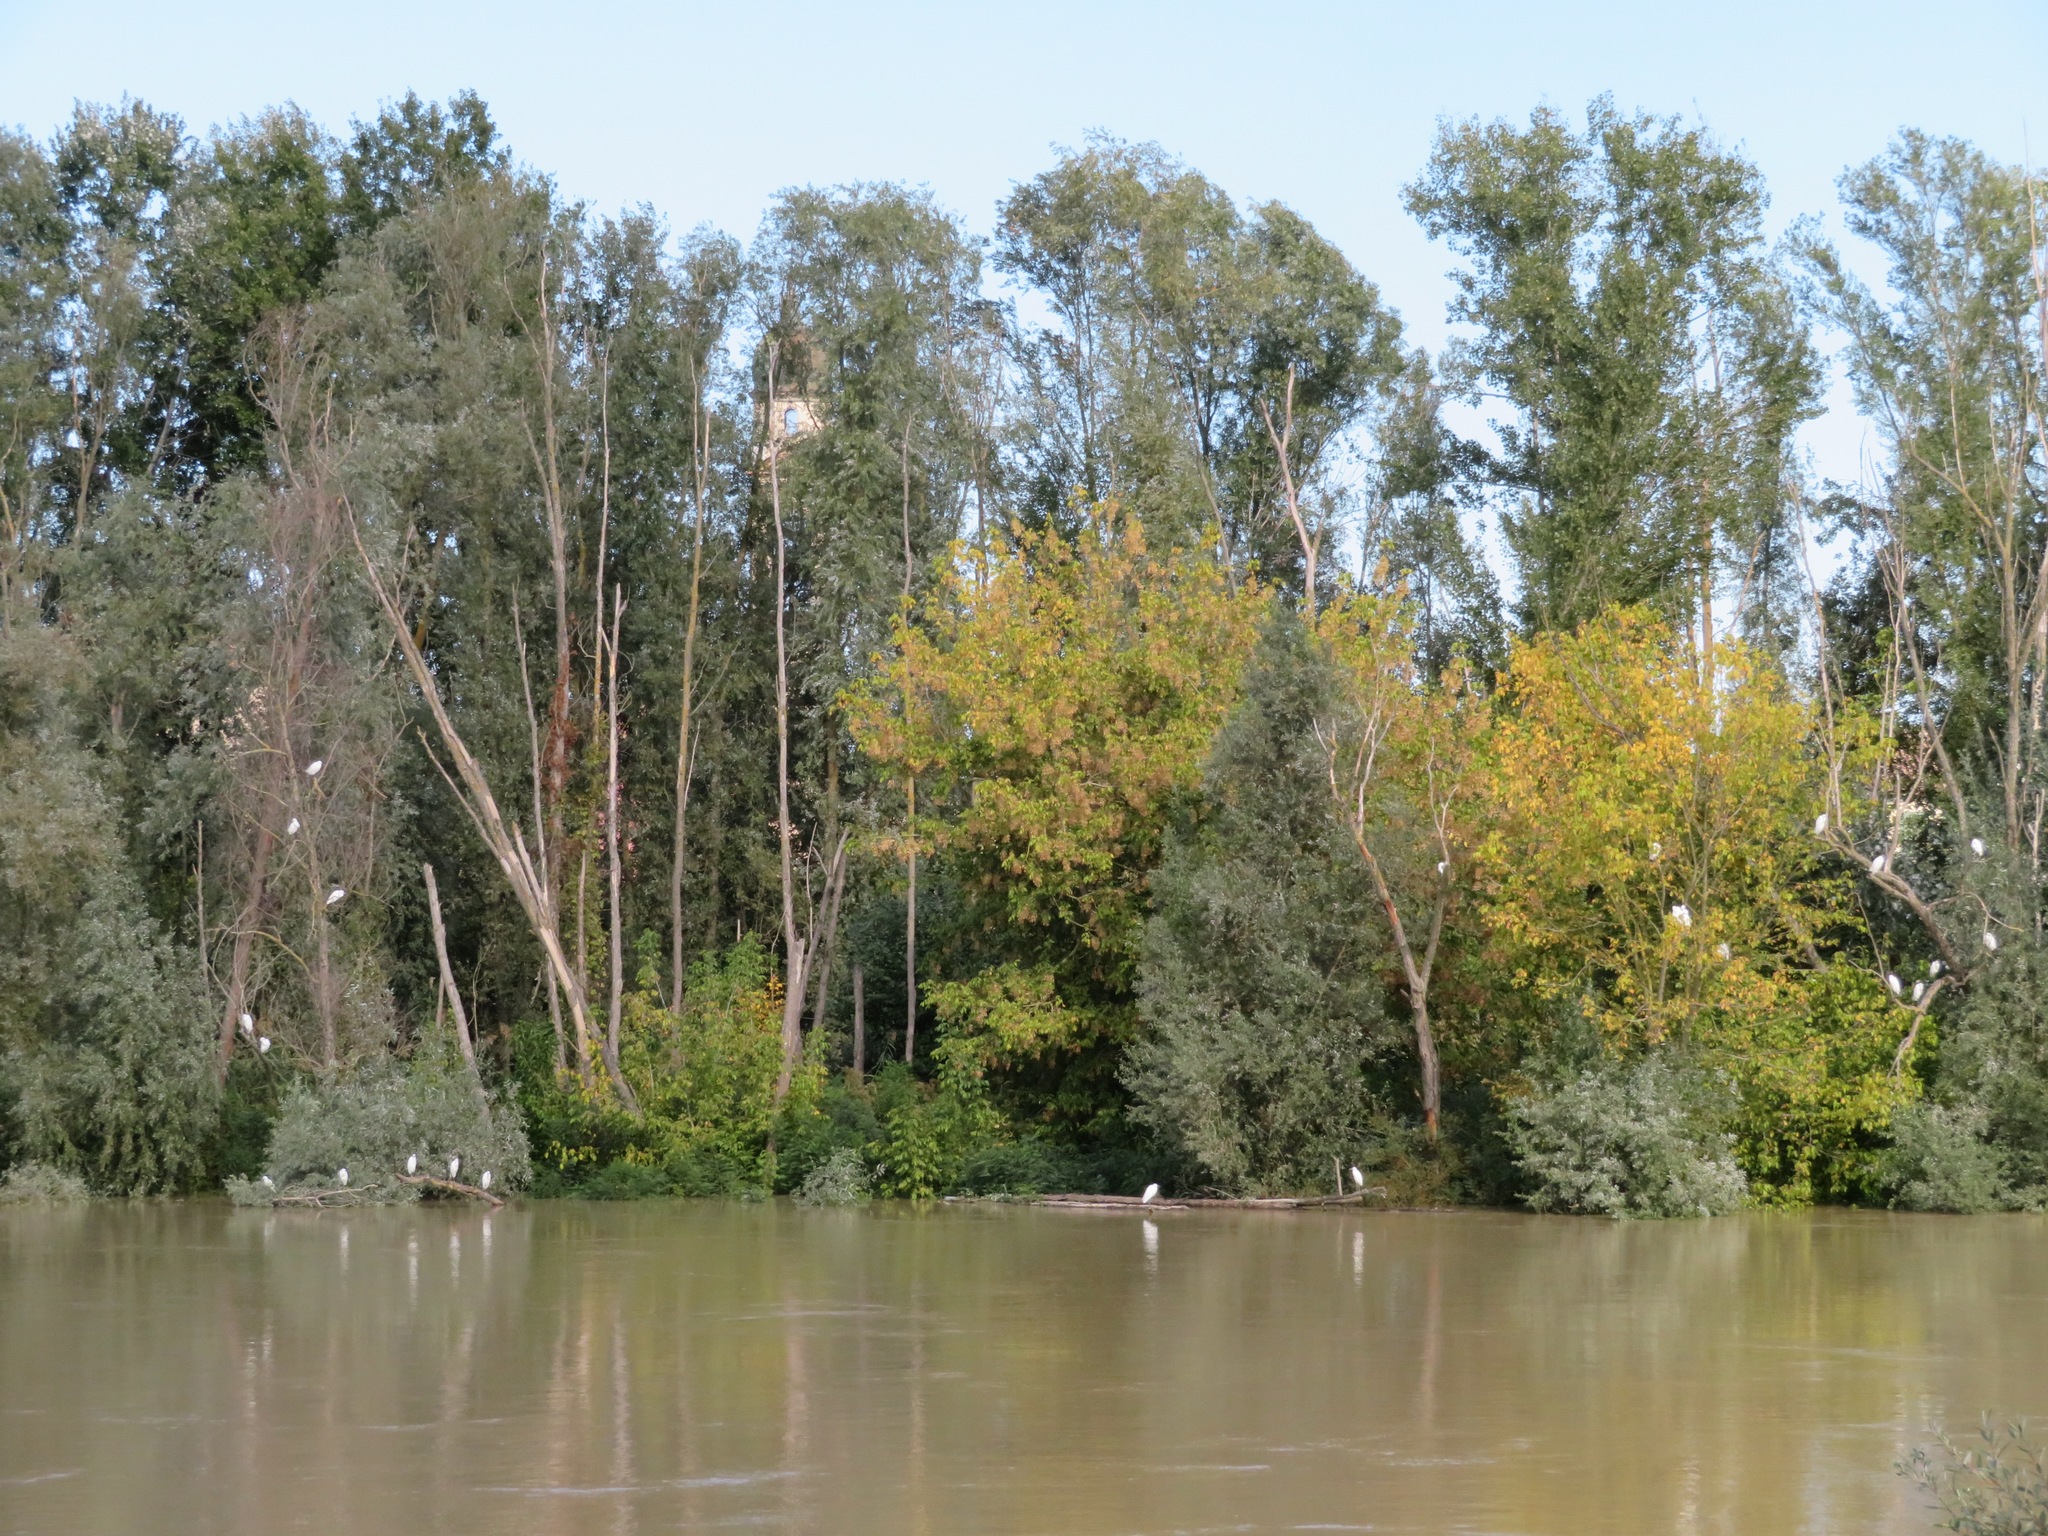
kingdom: Animalia
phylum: Chordata
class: Aves
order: Pelecaniformes
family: Ardeidae
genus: Egretta
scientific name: Egretta garzetta
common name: Little egret
